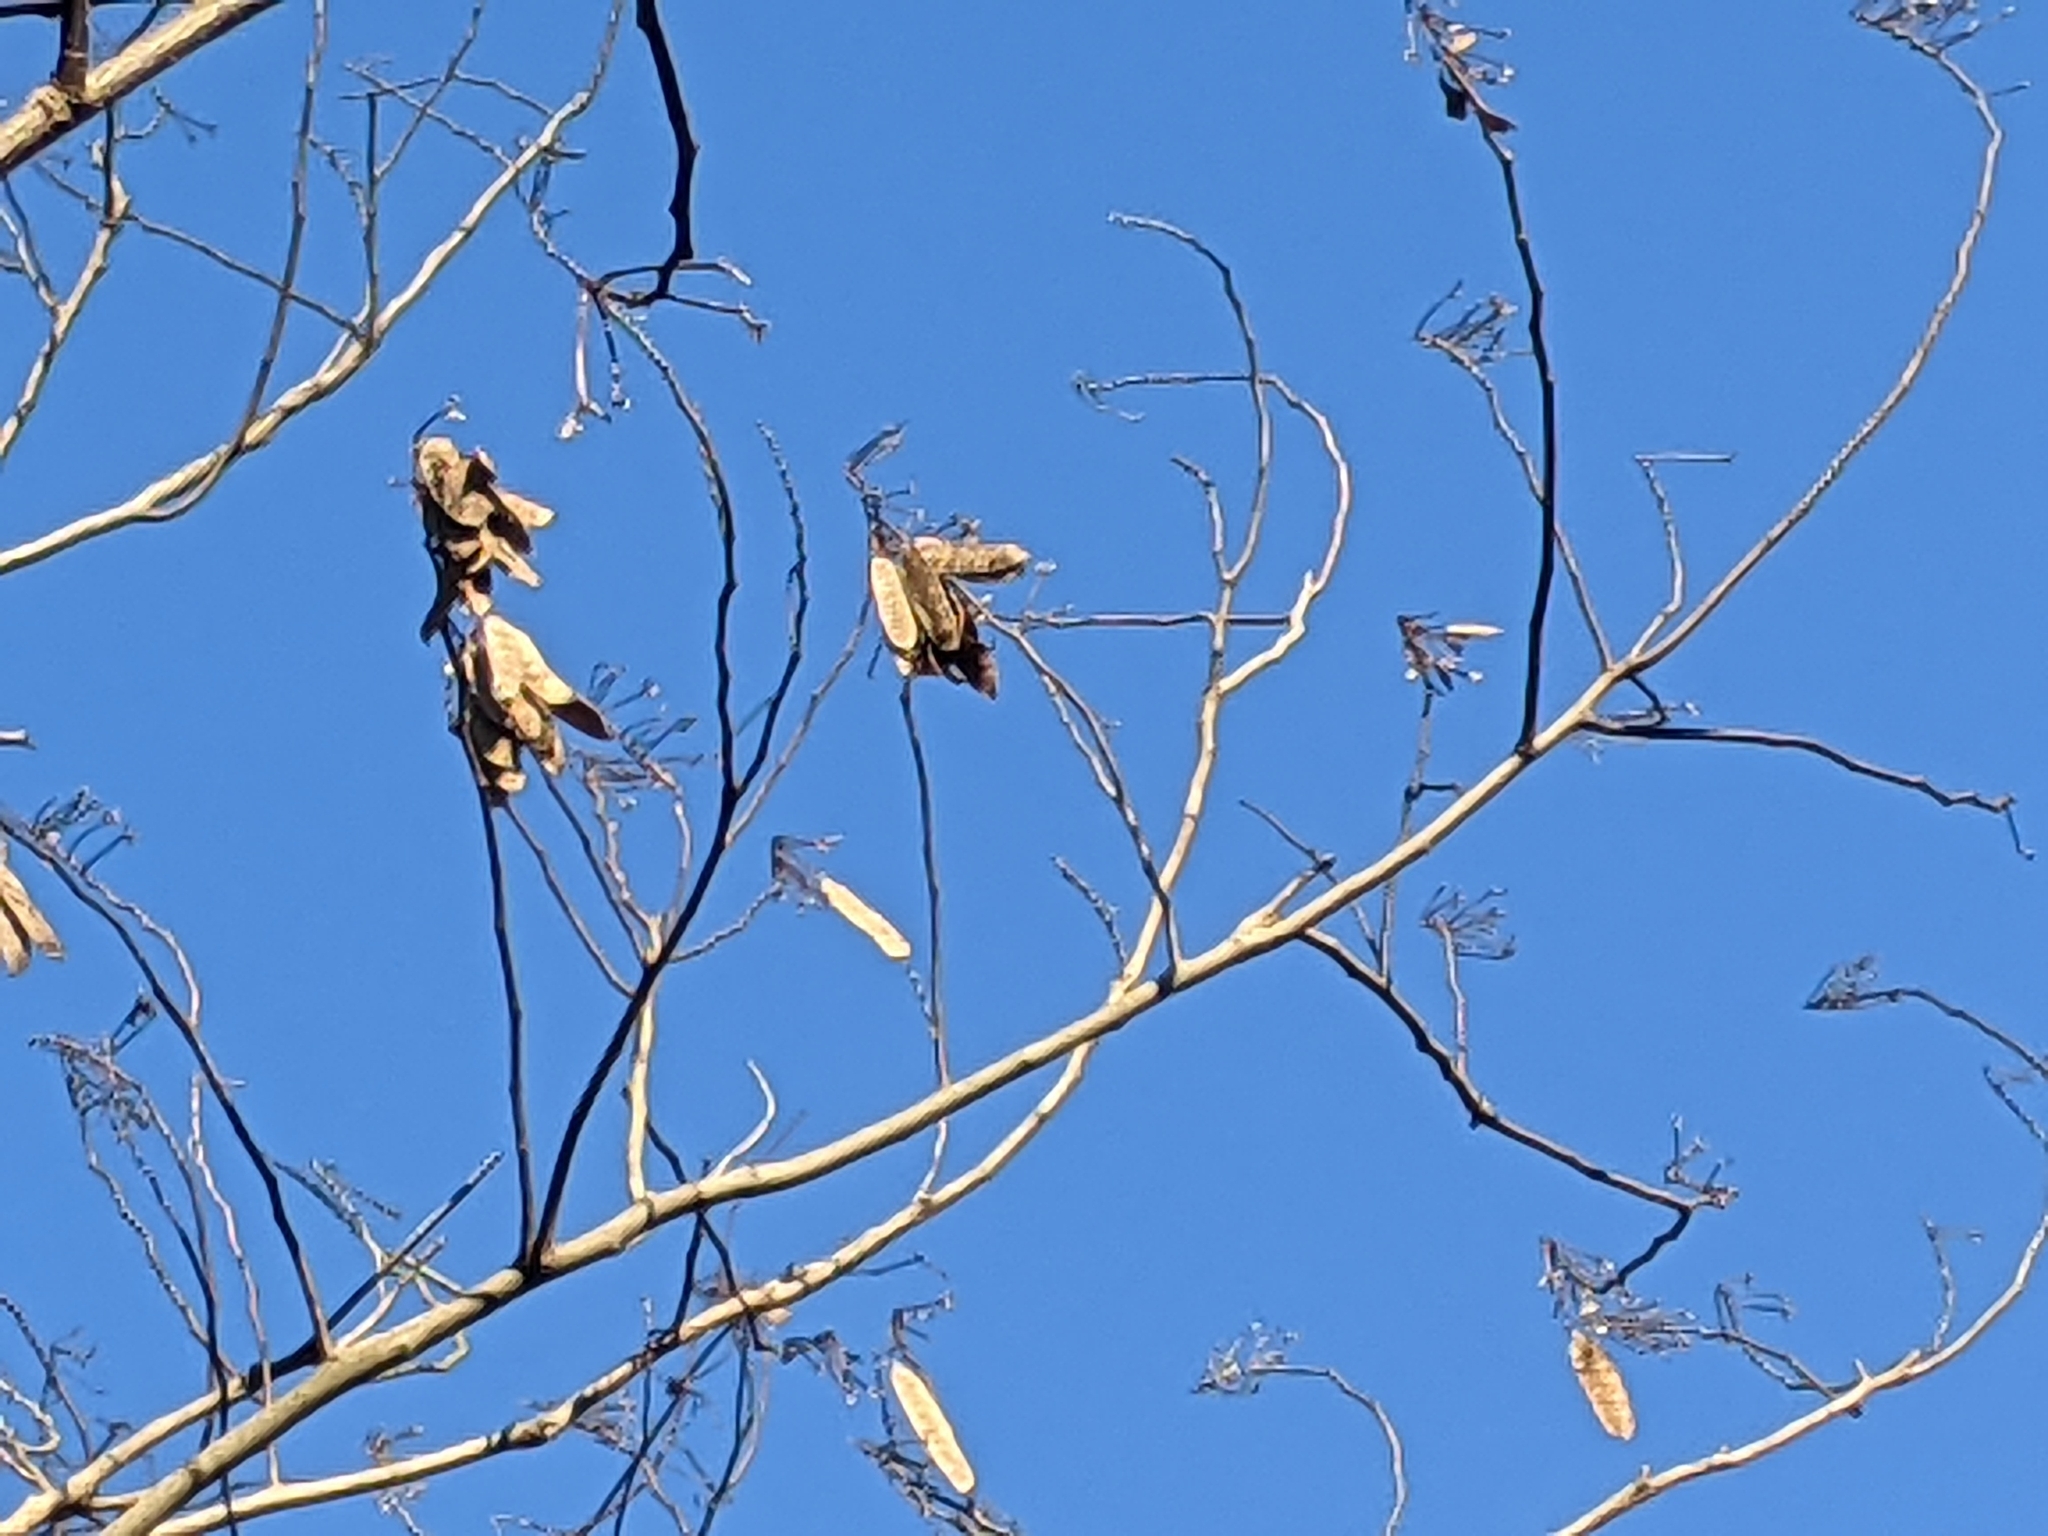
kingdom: Plantae
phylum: Tracheophyta
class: Magnoliopsida
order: Fabales
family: Fabaceae
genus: Albizia
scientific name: Albizia julibrissin
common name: Silktree
